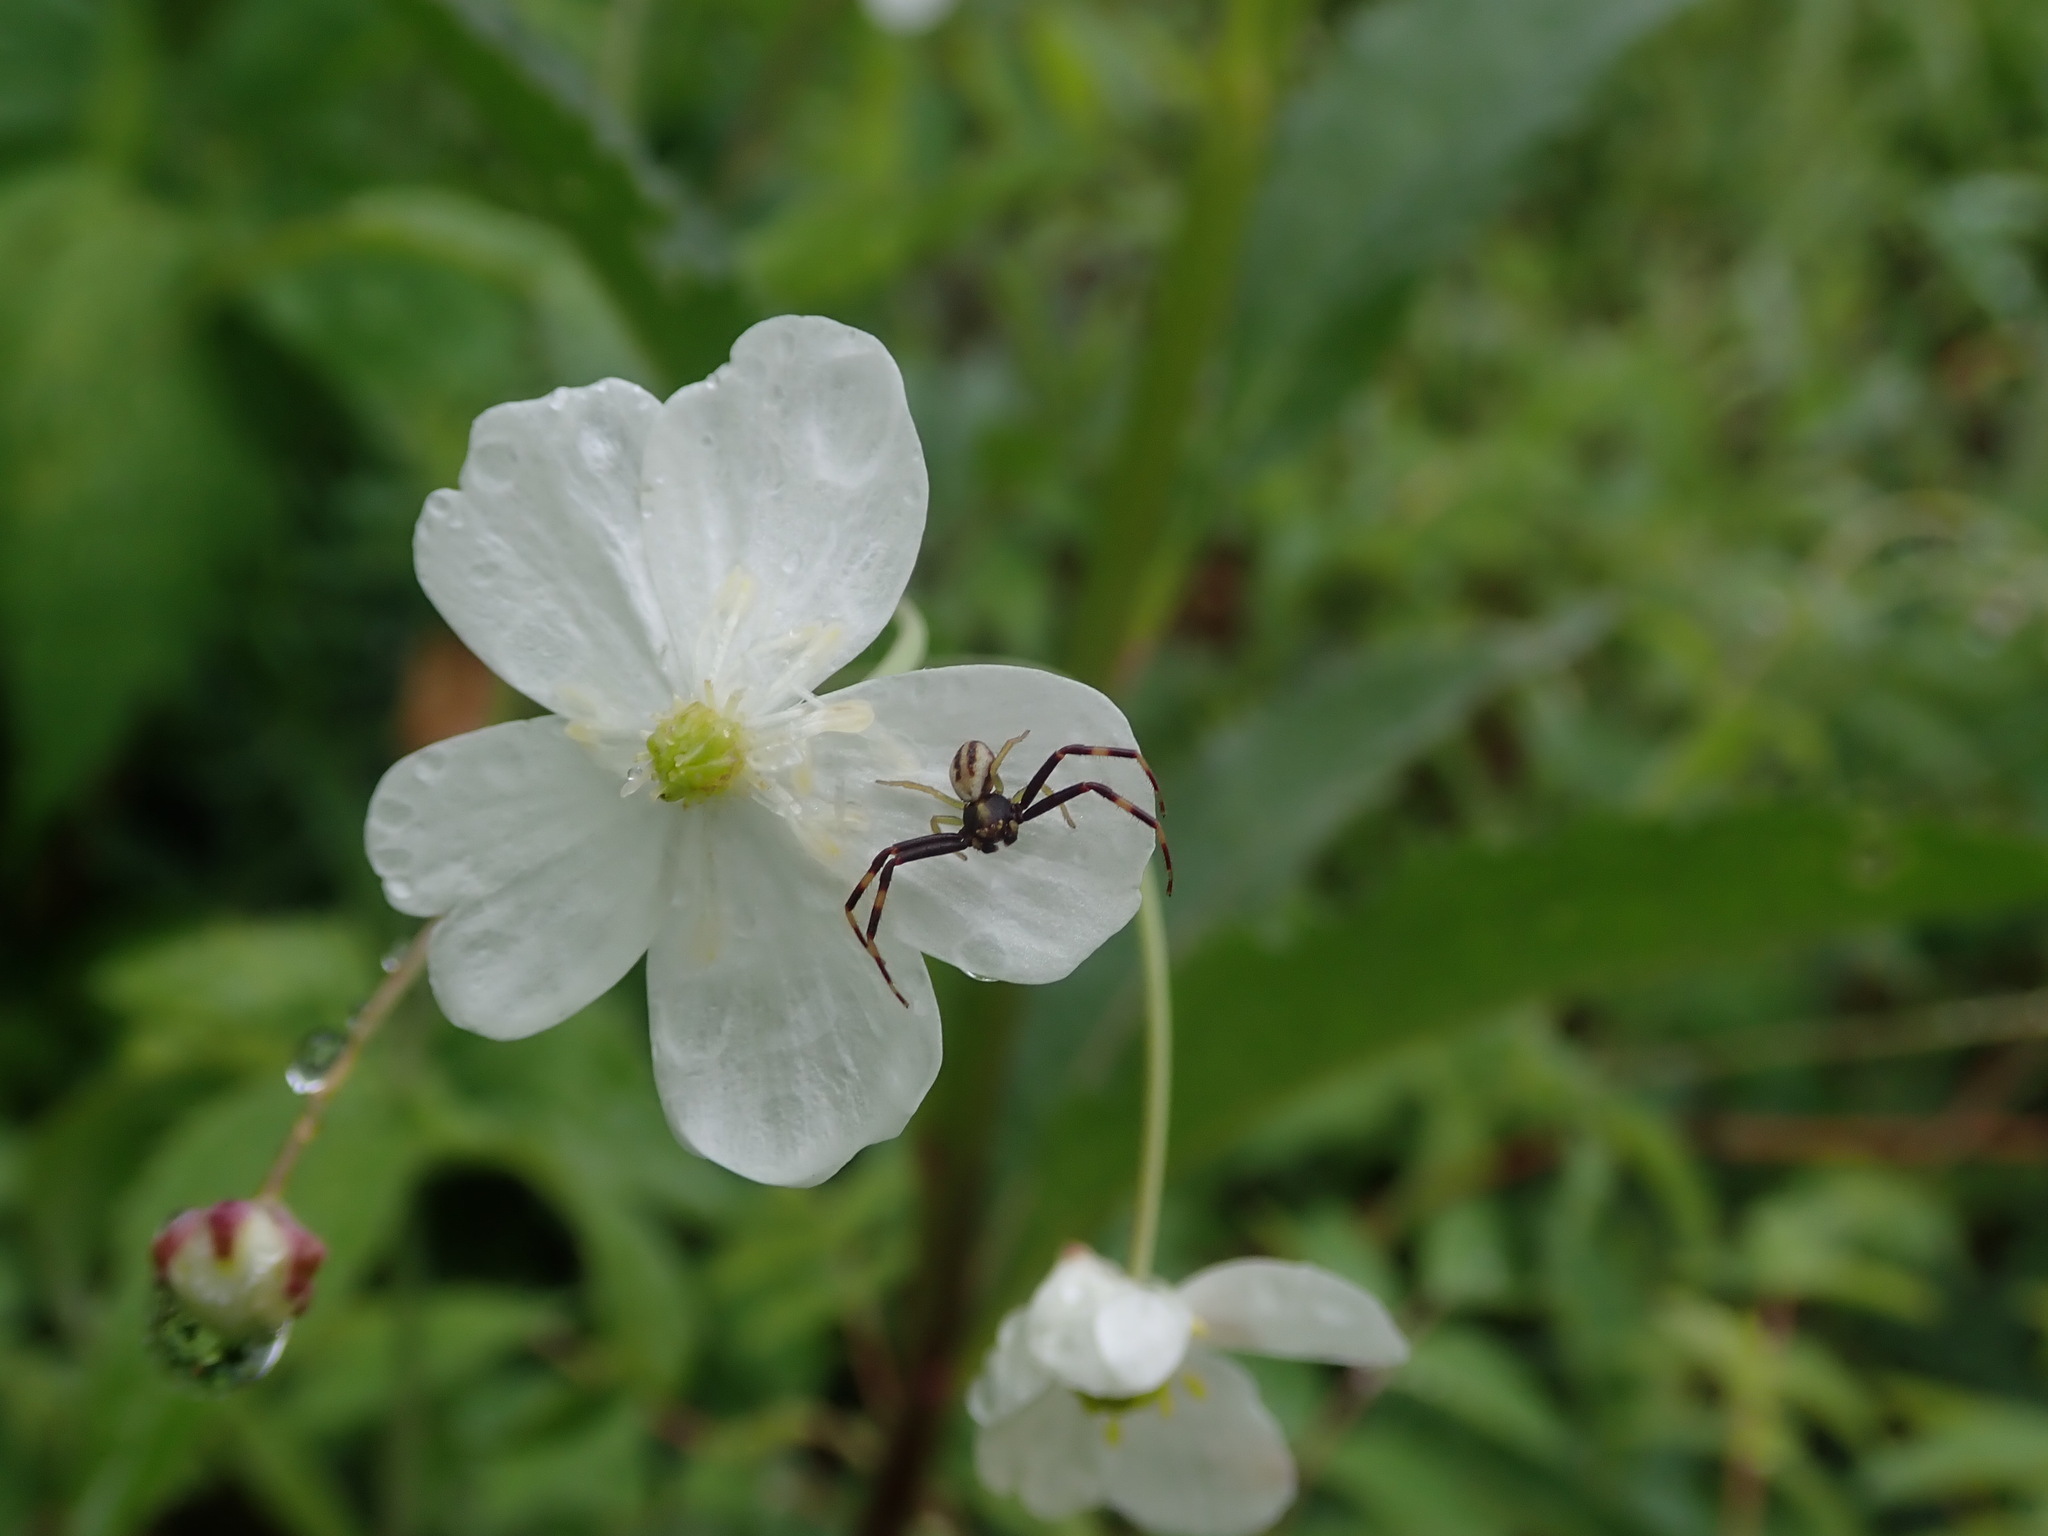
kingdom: Animalia
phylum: Arthropoda
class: Arachnida
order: Araneae
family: Thomisidae
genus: Misumena
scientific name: Misumena vatia
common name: Goldenrod crab spider
